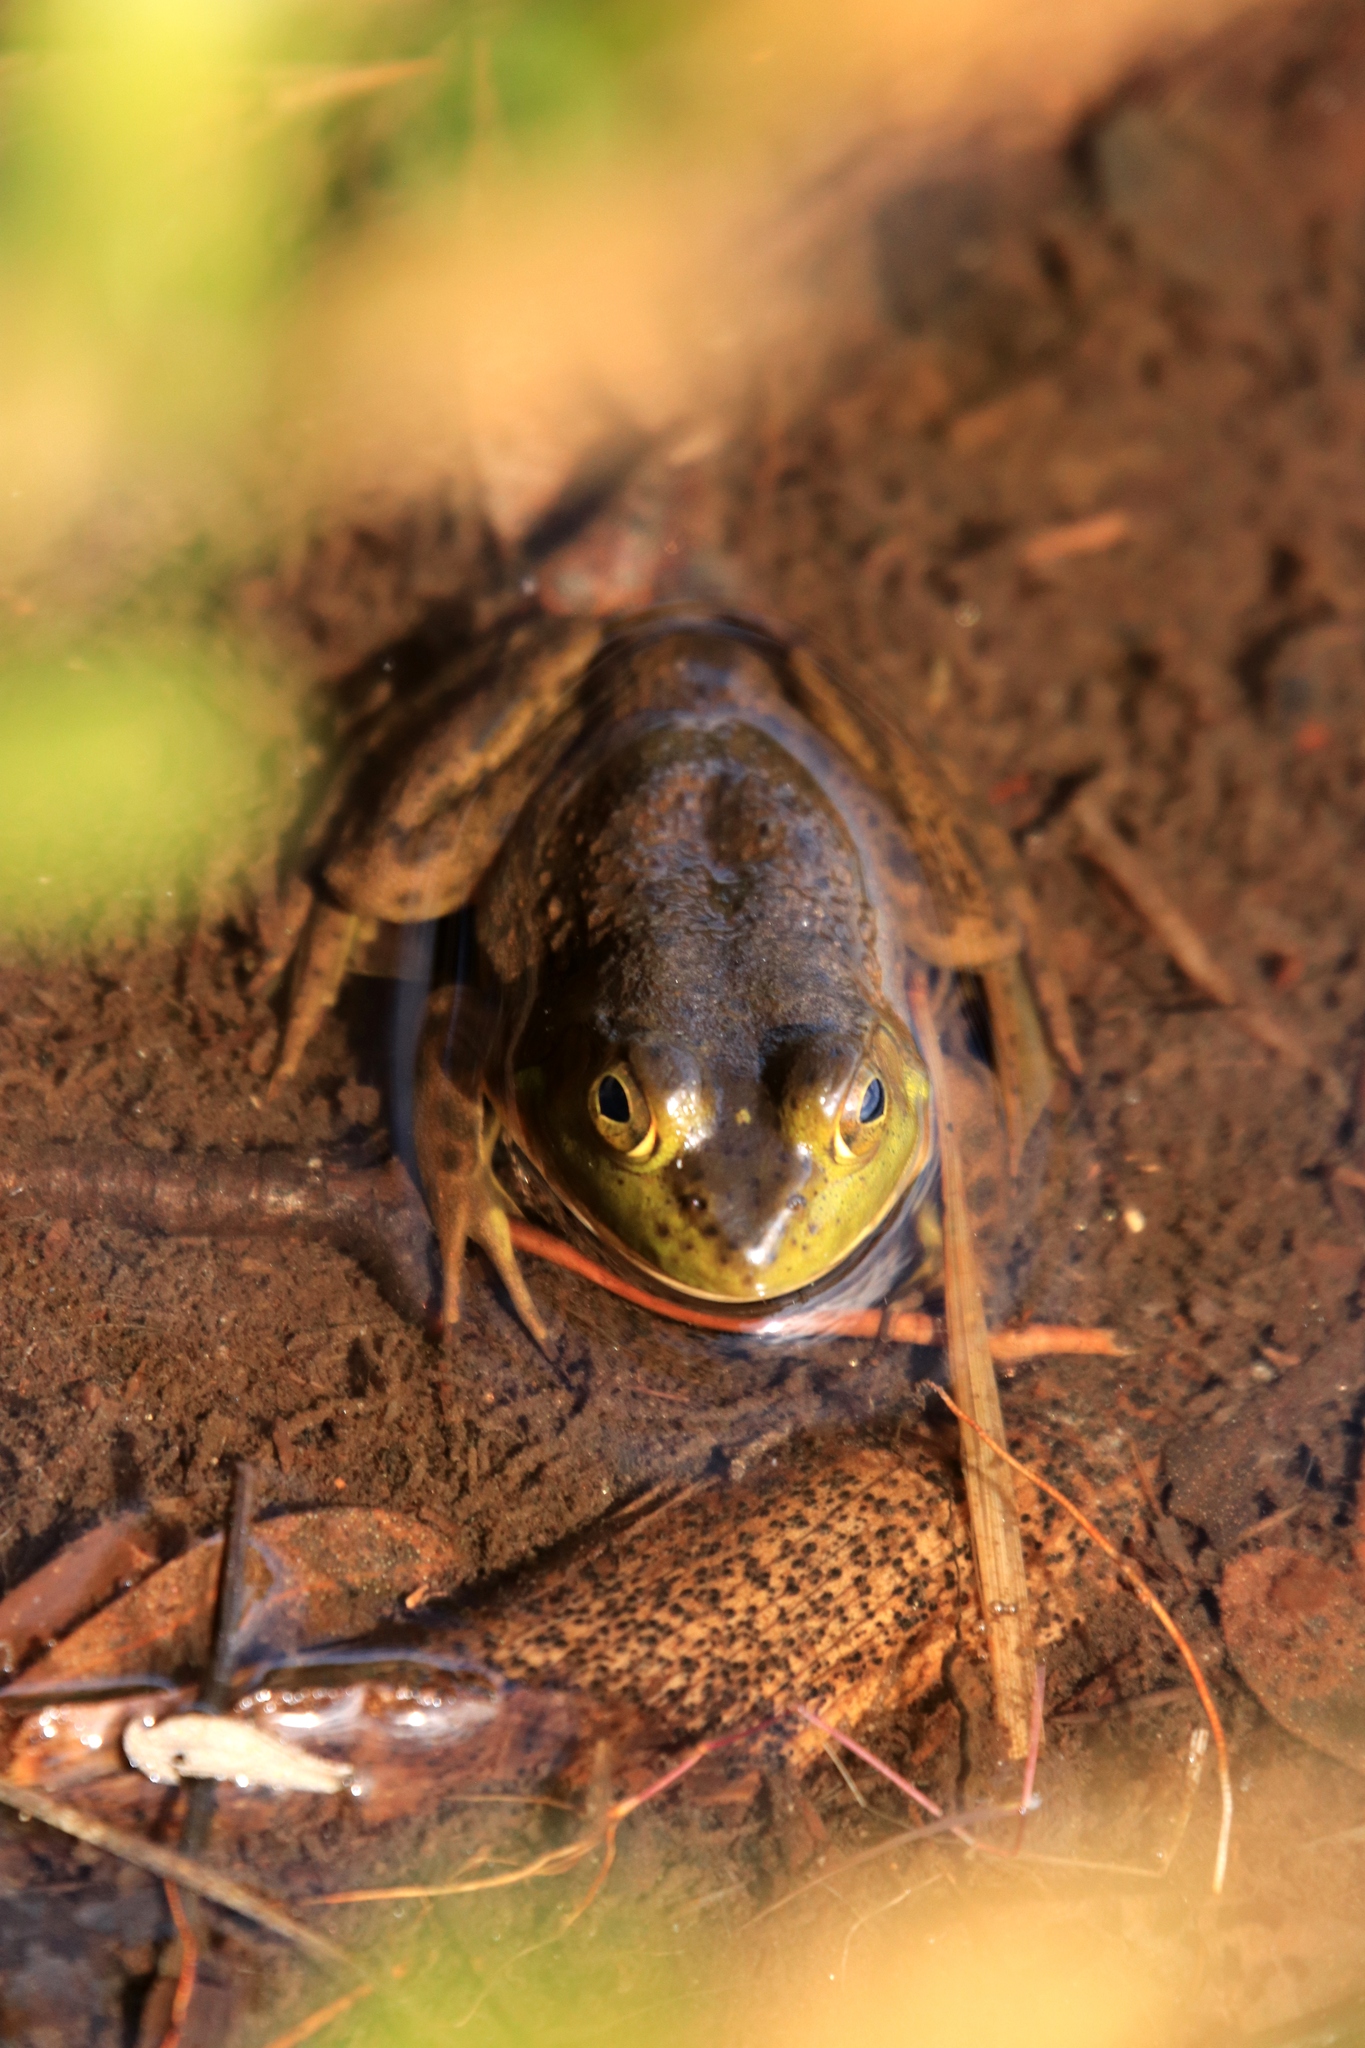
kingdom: Animalia
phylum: Chordata
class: Amphibia
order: Anura
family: Ranidae
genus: Lithobates
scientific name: Lithobates catesbeianus
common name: American bullfrog
